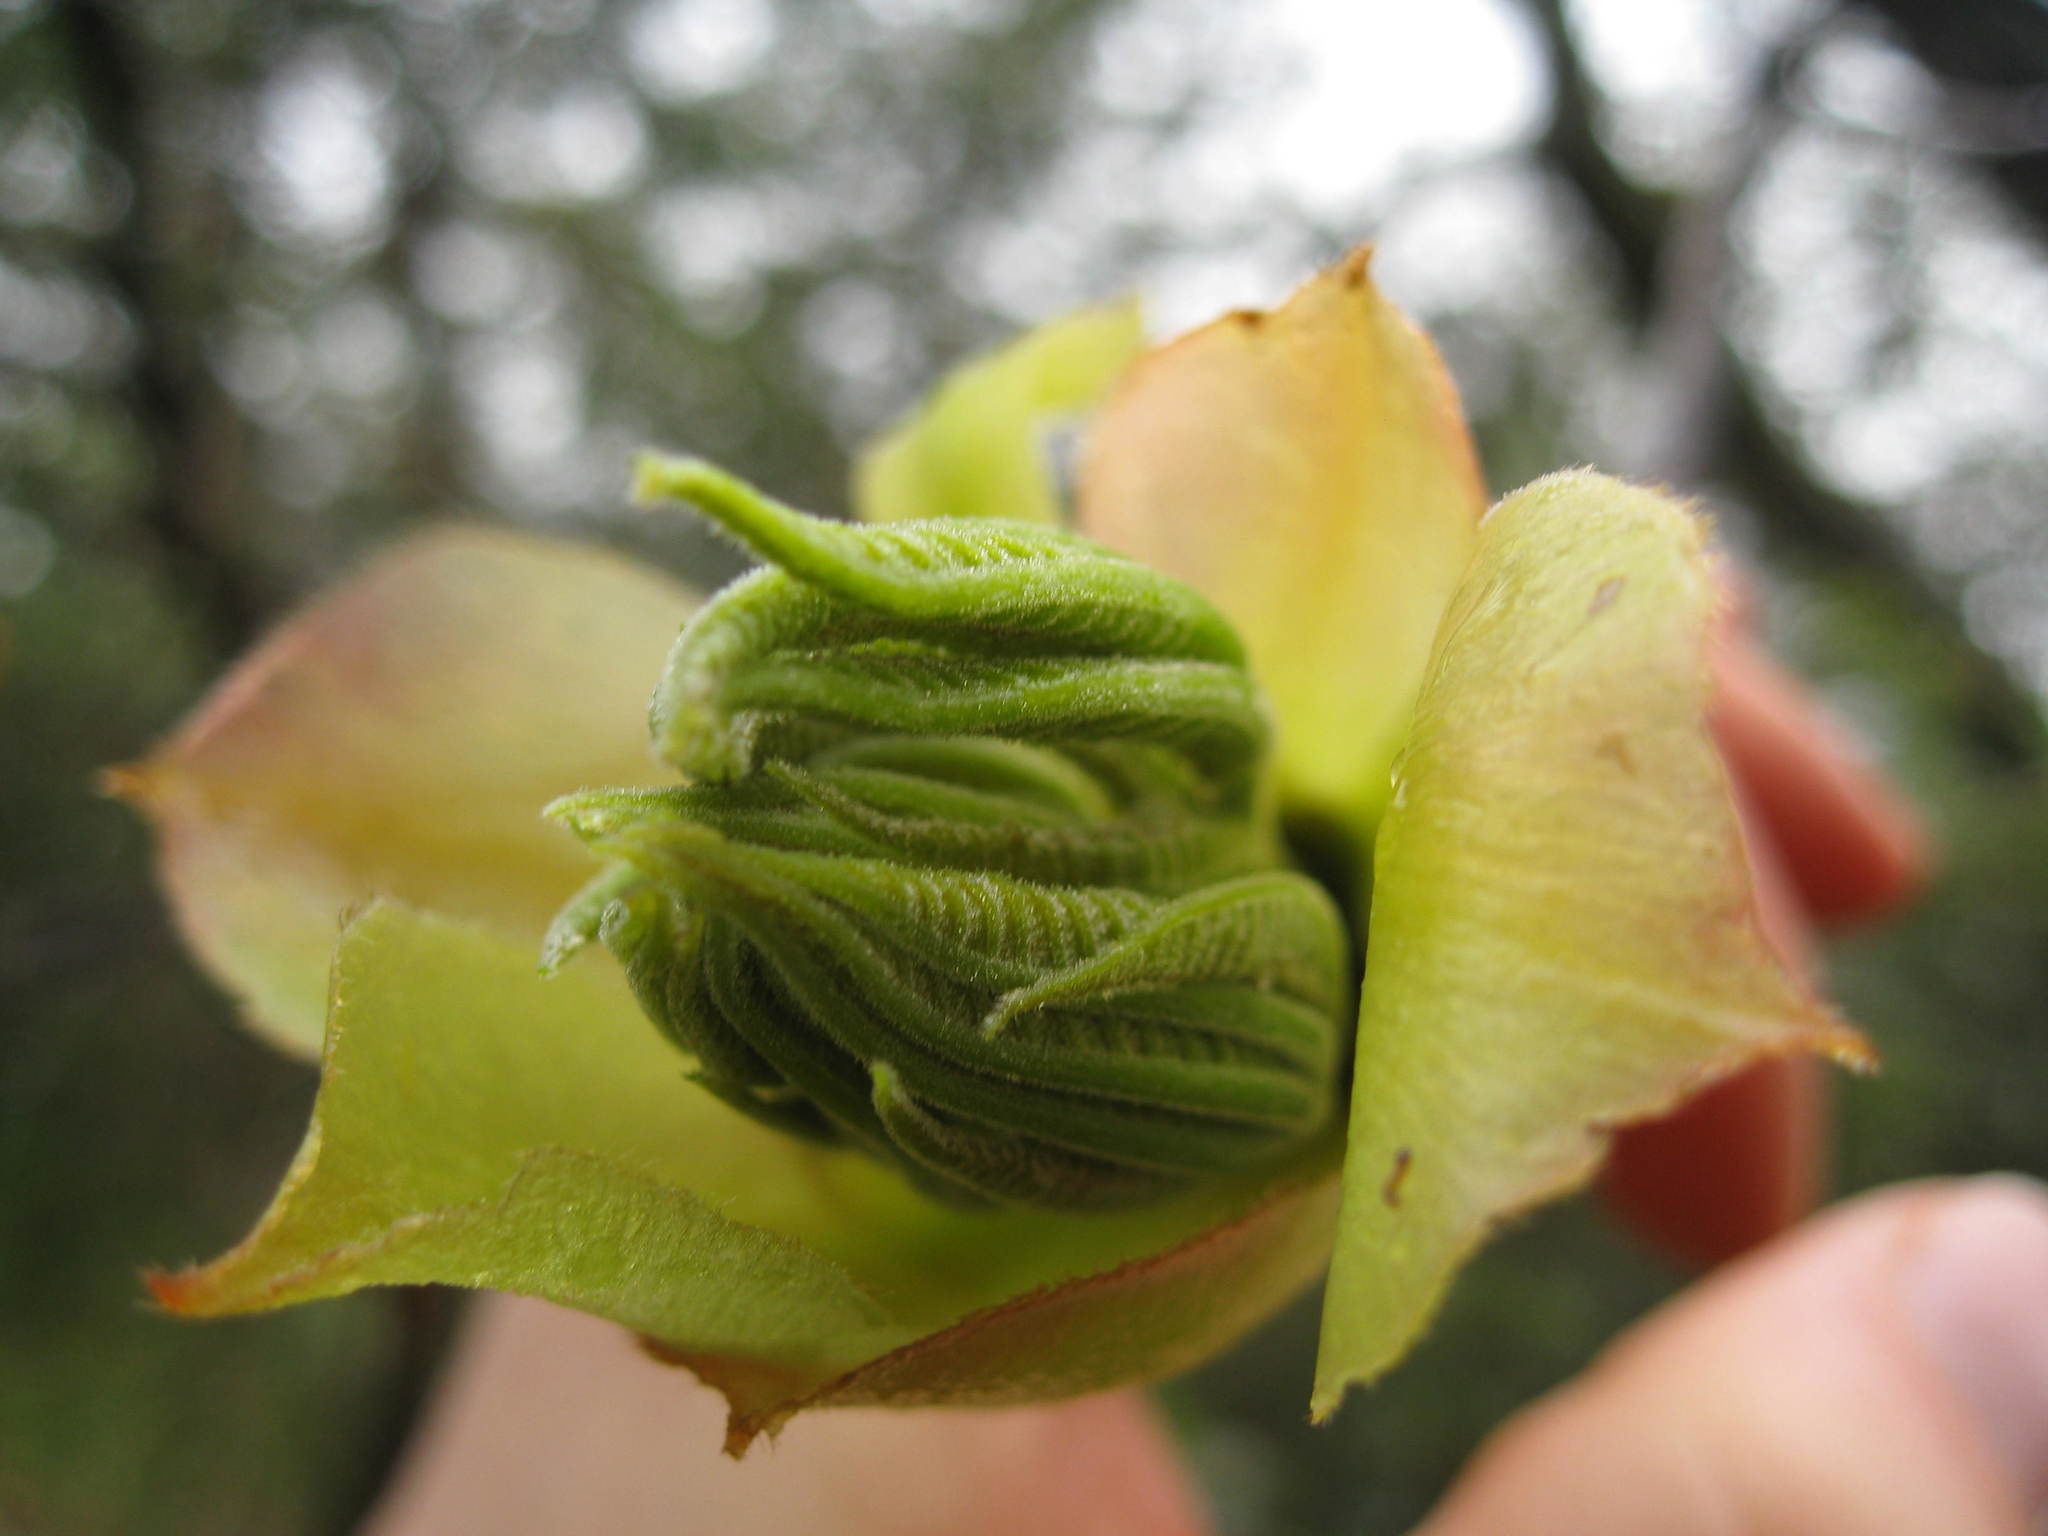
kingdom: Plantae
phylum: Tracheophyta
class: Magnoliopsida
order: Fagales
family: Juglandaceae
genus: Carya
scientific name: Carya ovata
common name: Shagbark hickory
